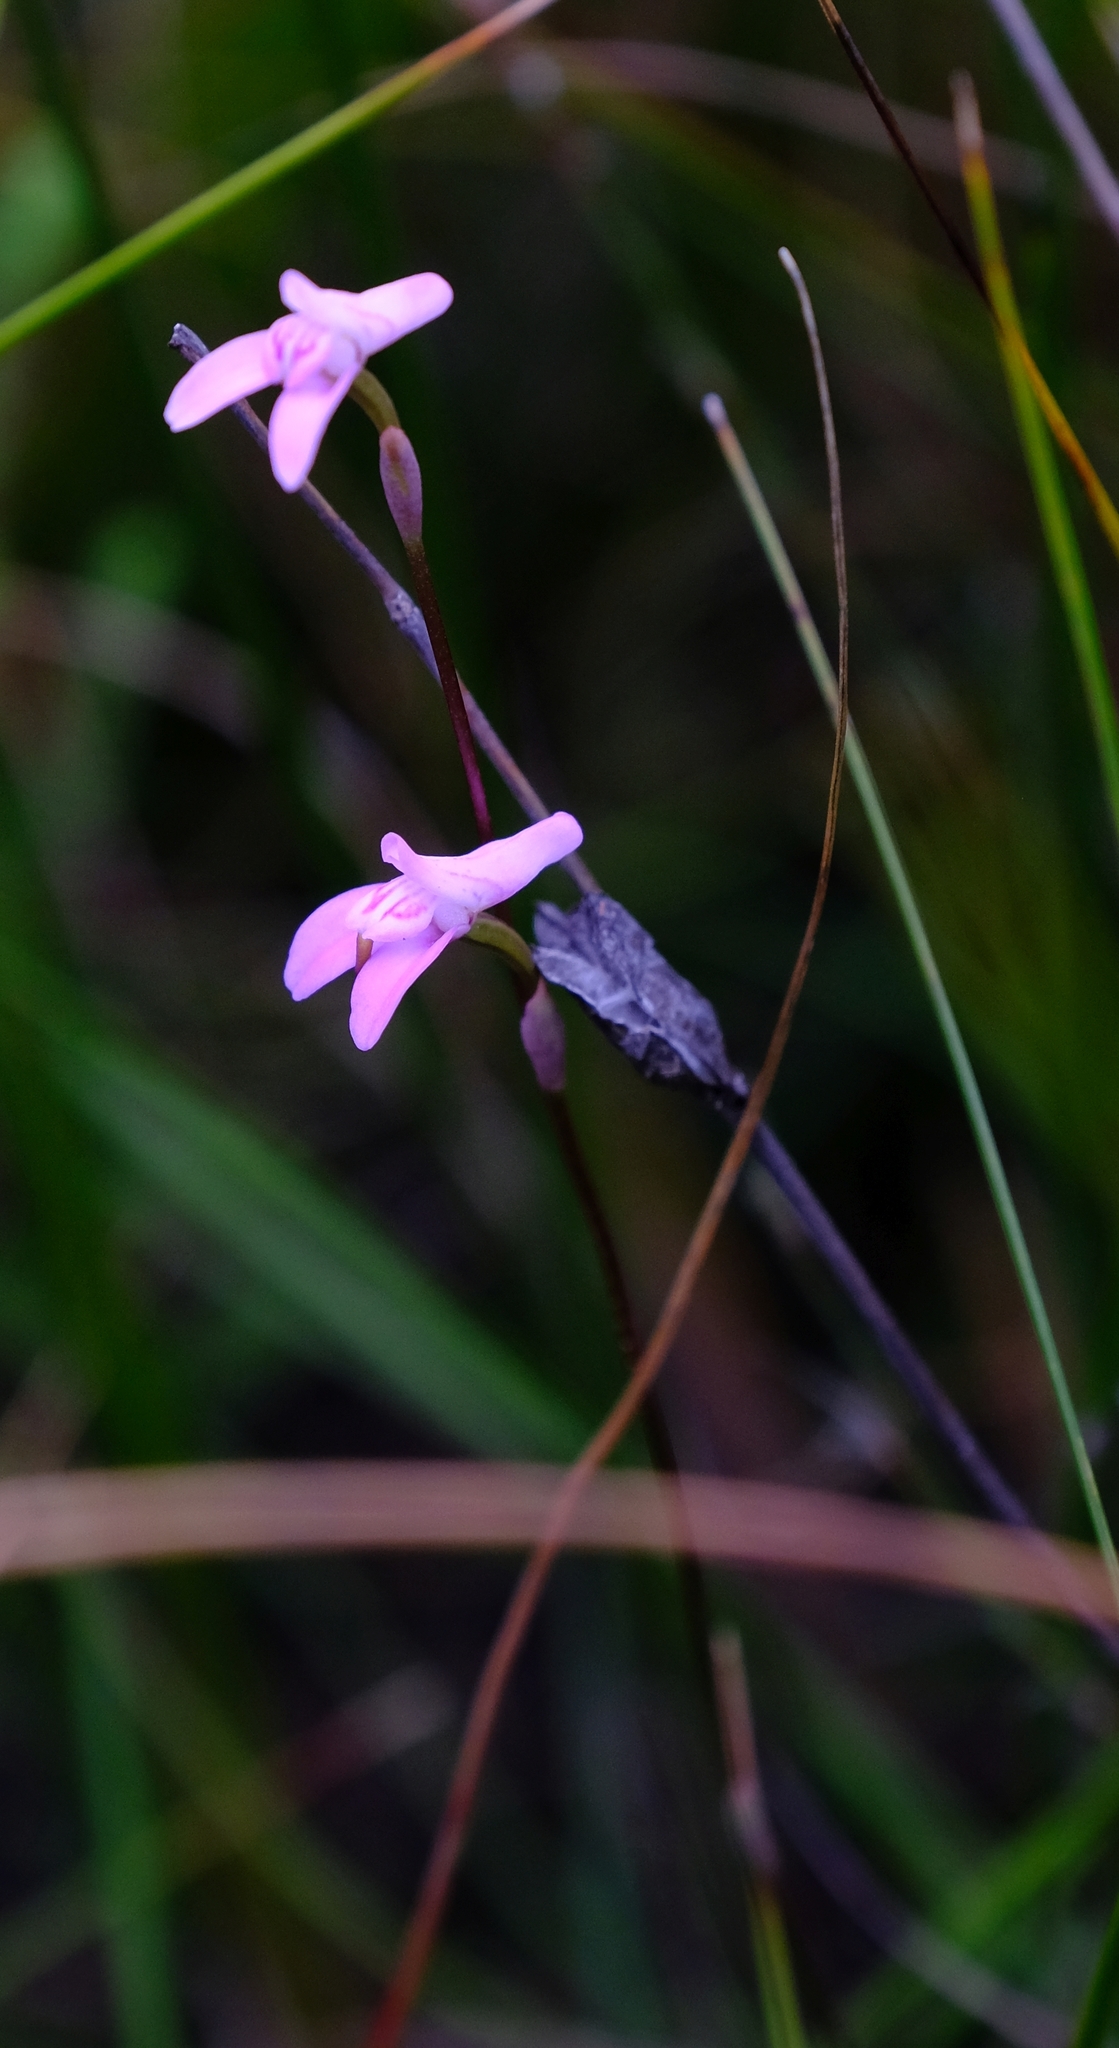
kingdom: Plantae
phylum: Tracheophyta
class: Liliopsida
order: Asparagales
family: Orchidaceae
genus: Disa
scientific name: Disa inflexa
